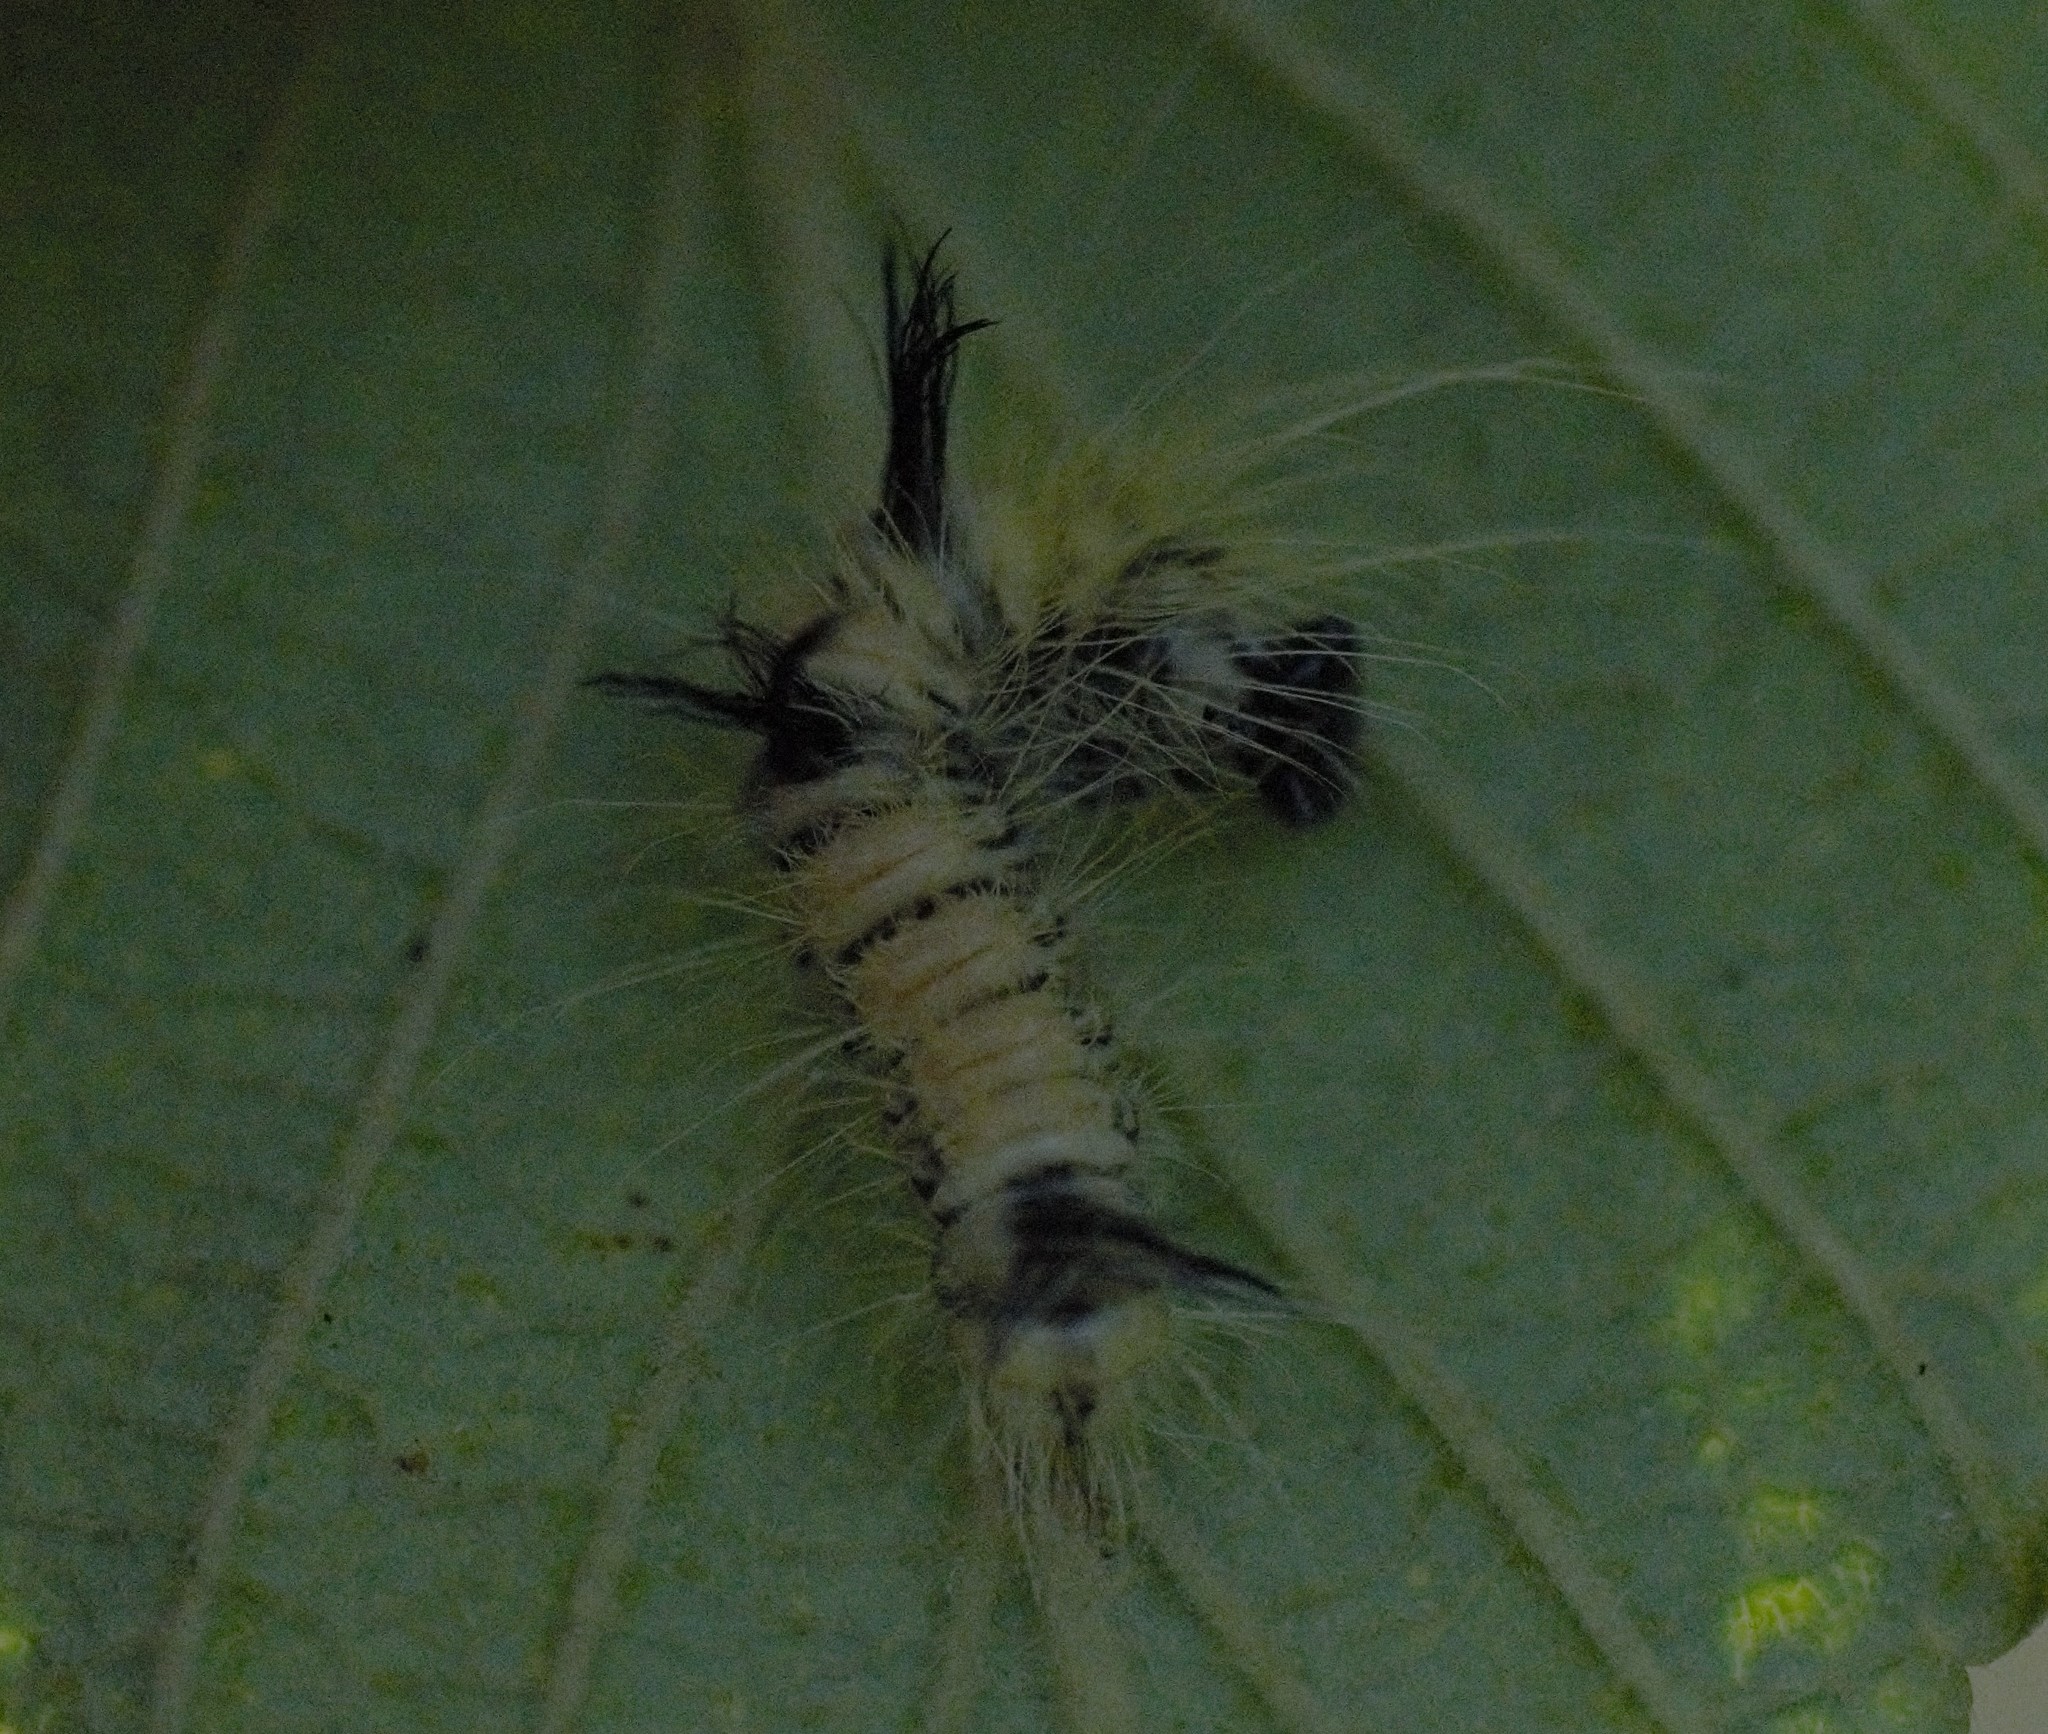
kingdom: Animalia
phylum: Arthropoda
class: Insecta
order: Lepidoptera
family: Noctuidae
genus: Acronicta
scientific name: Acronicta insita
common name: Large gray dagger
